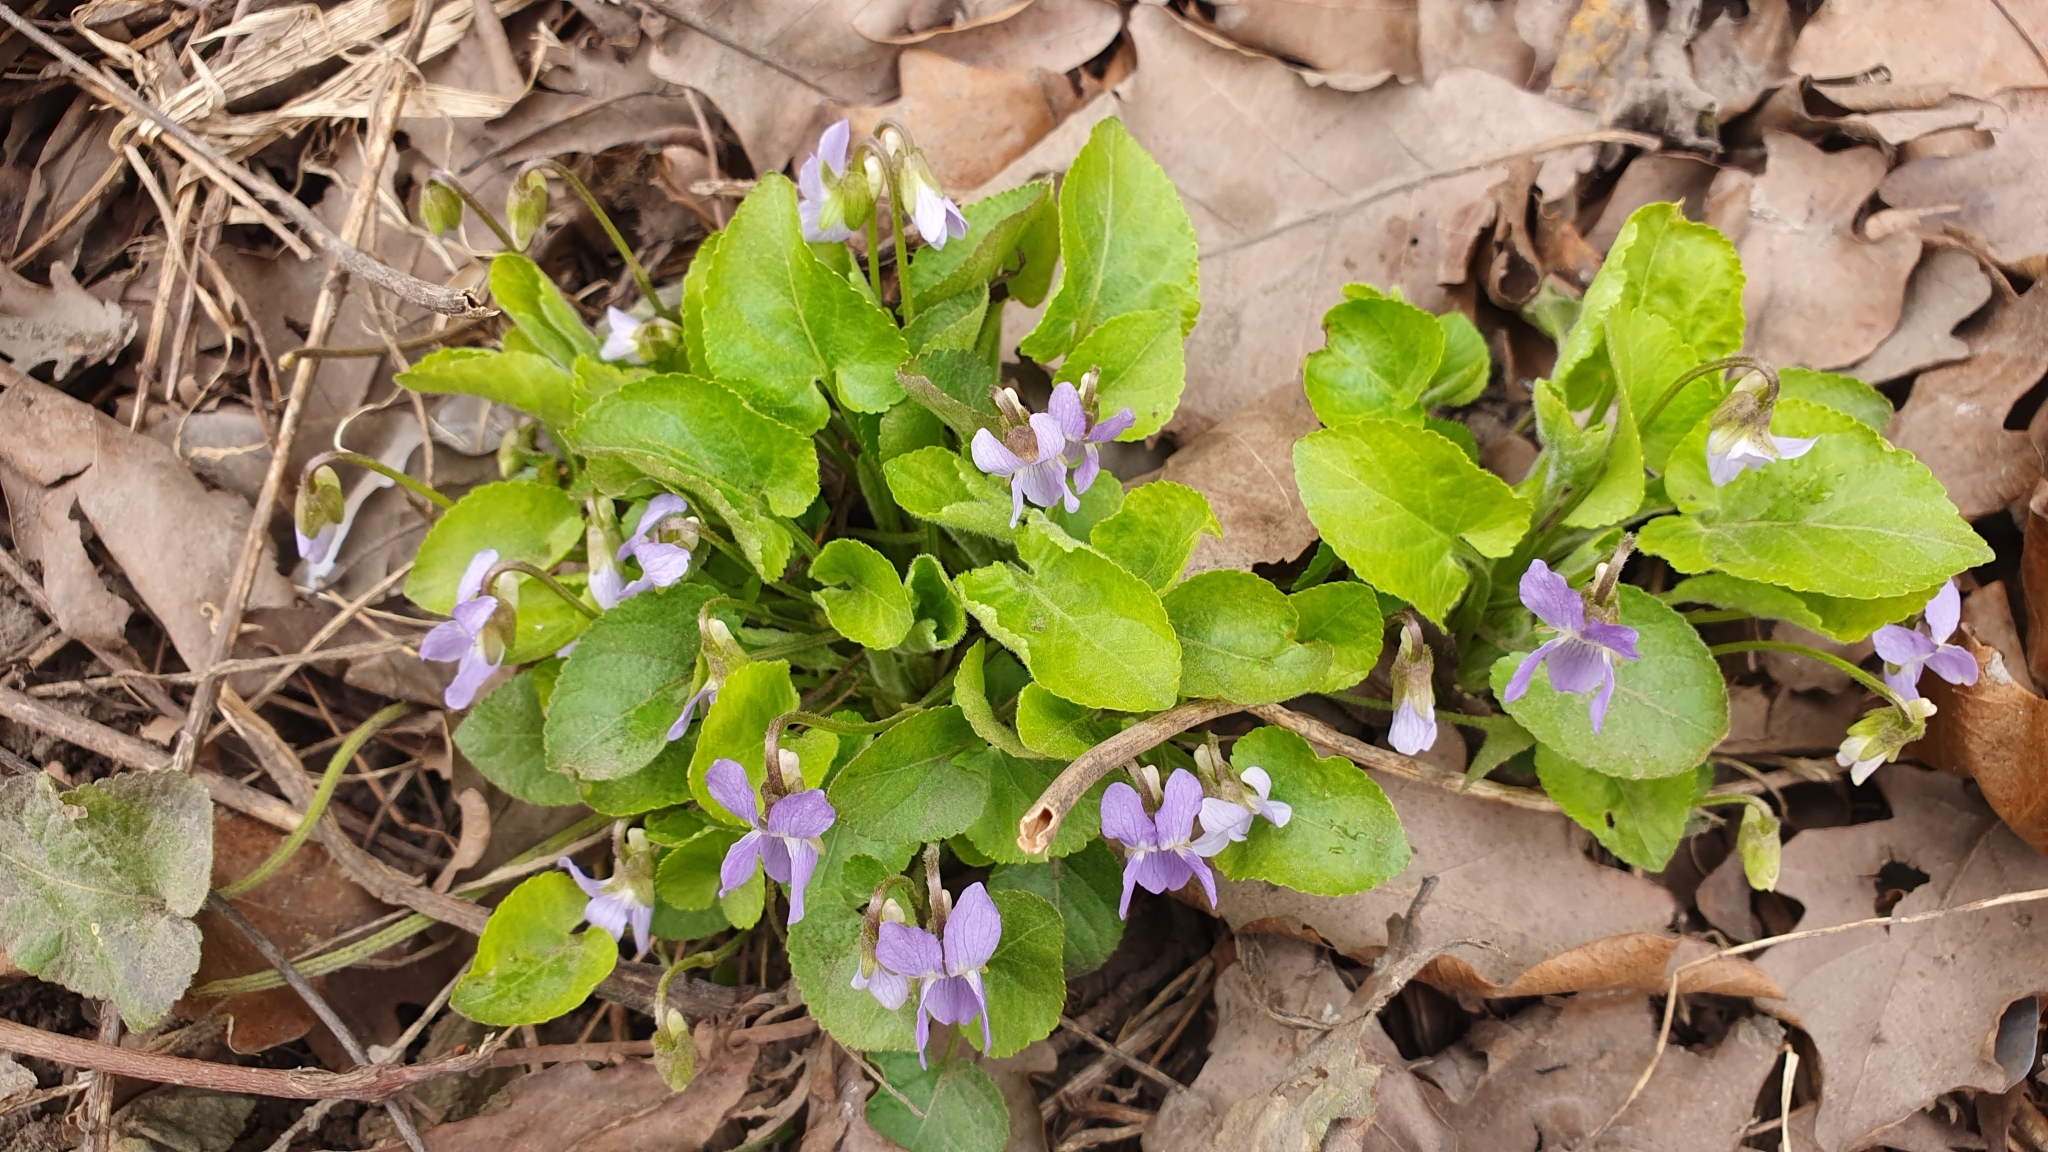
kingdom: Plantae
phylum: Tracheophyta
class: Magnoliopsida
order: Malpighiales
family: Violaceae
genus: Viola
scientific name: Viola collina
